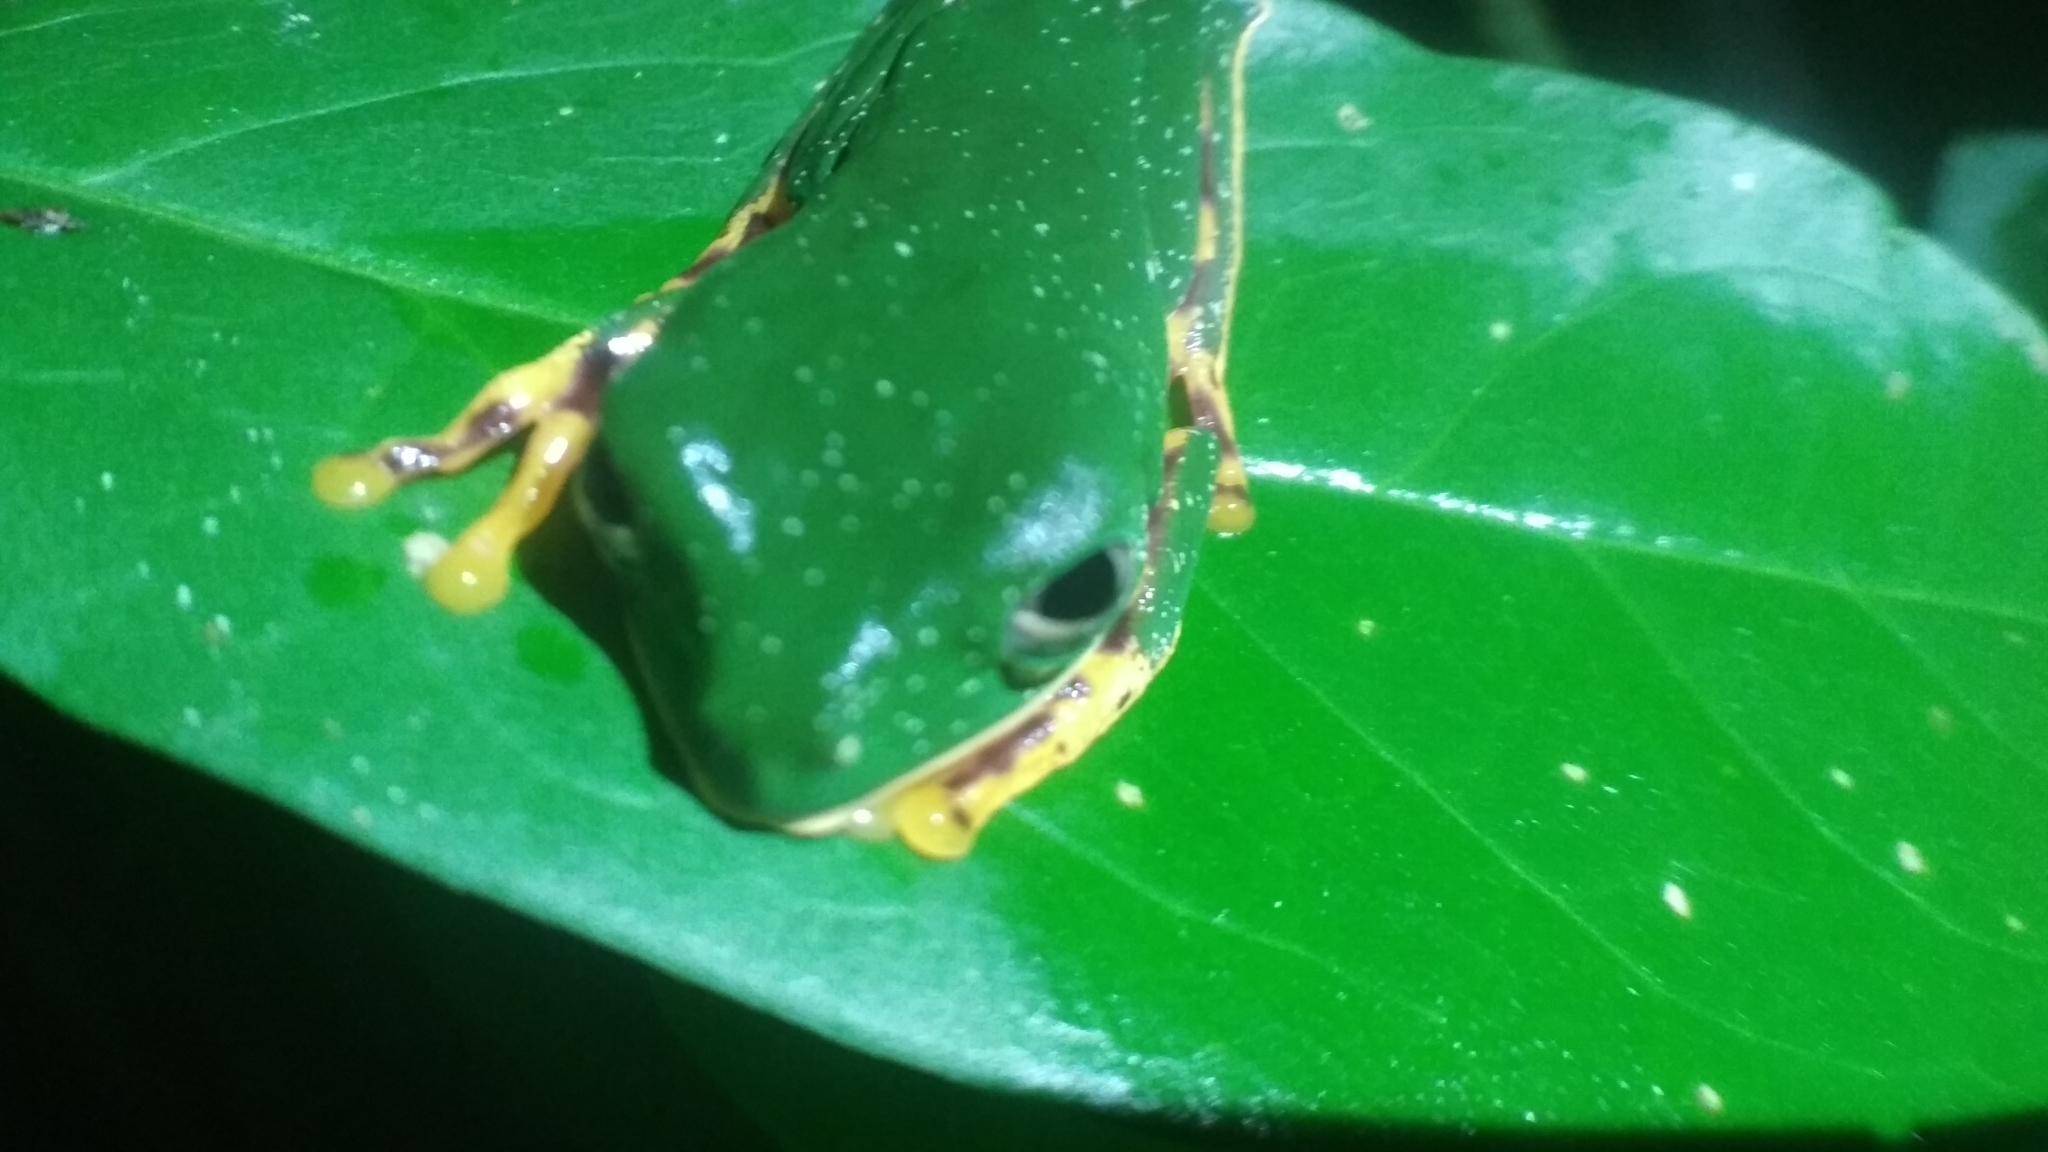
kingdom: Animalia
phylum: Chordata
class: Amphibia
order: Anura
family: Phyllomedusidae
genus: Callimedusa
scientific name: Callimedusa tomopterna
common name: Tiger-striped leaf frog
